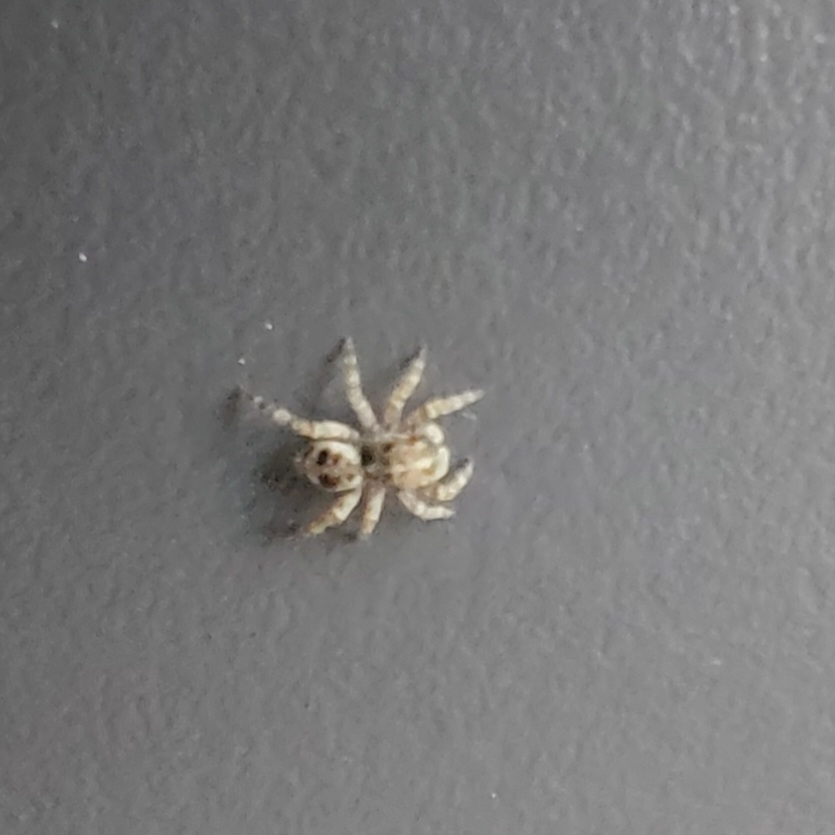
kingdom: Animalia
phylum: Arthropoda
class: Arachnida
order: Araneae
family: Salticidae
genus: Attulus
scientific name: Attulus fasciger
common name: Asiatic wall jumping spider
